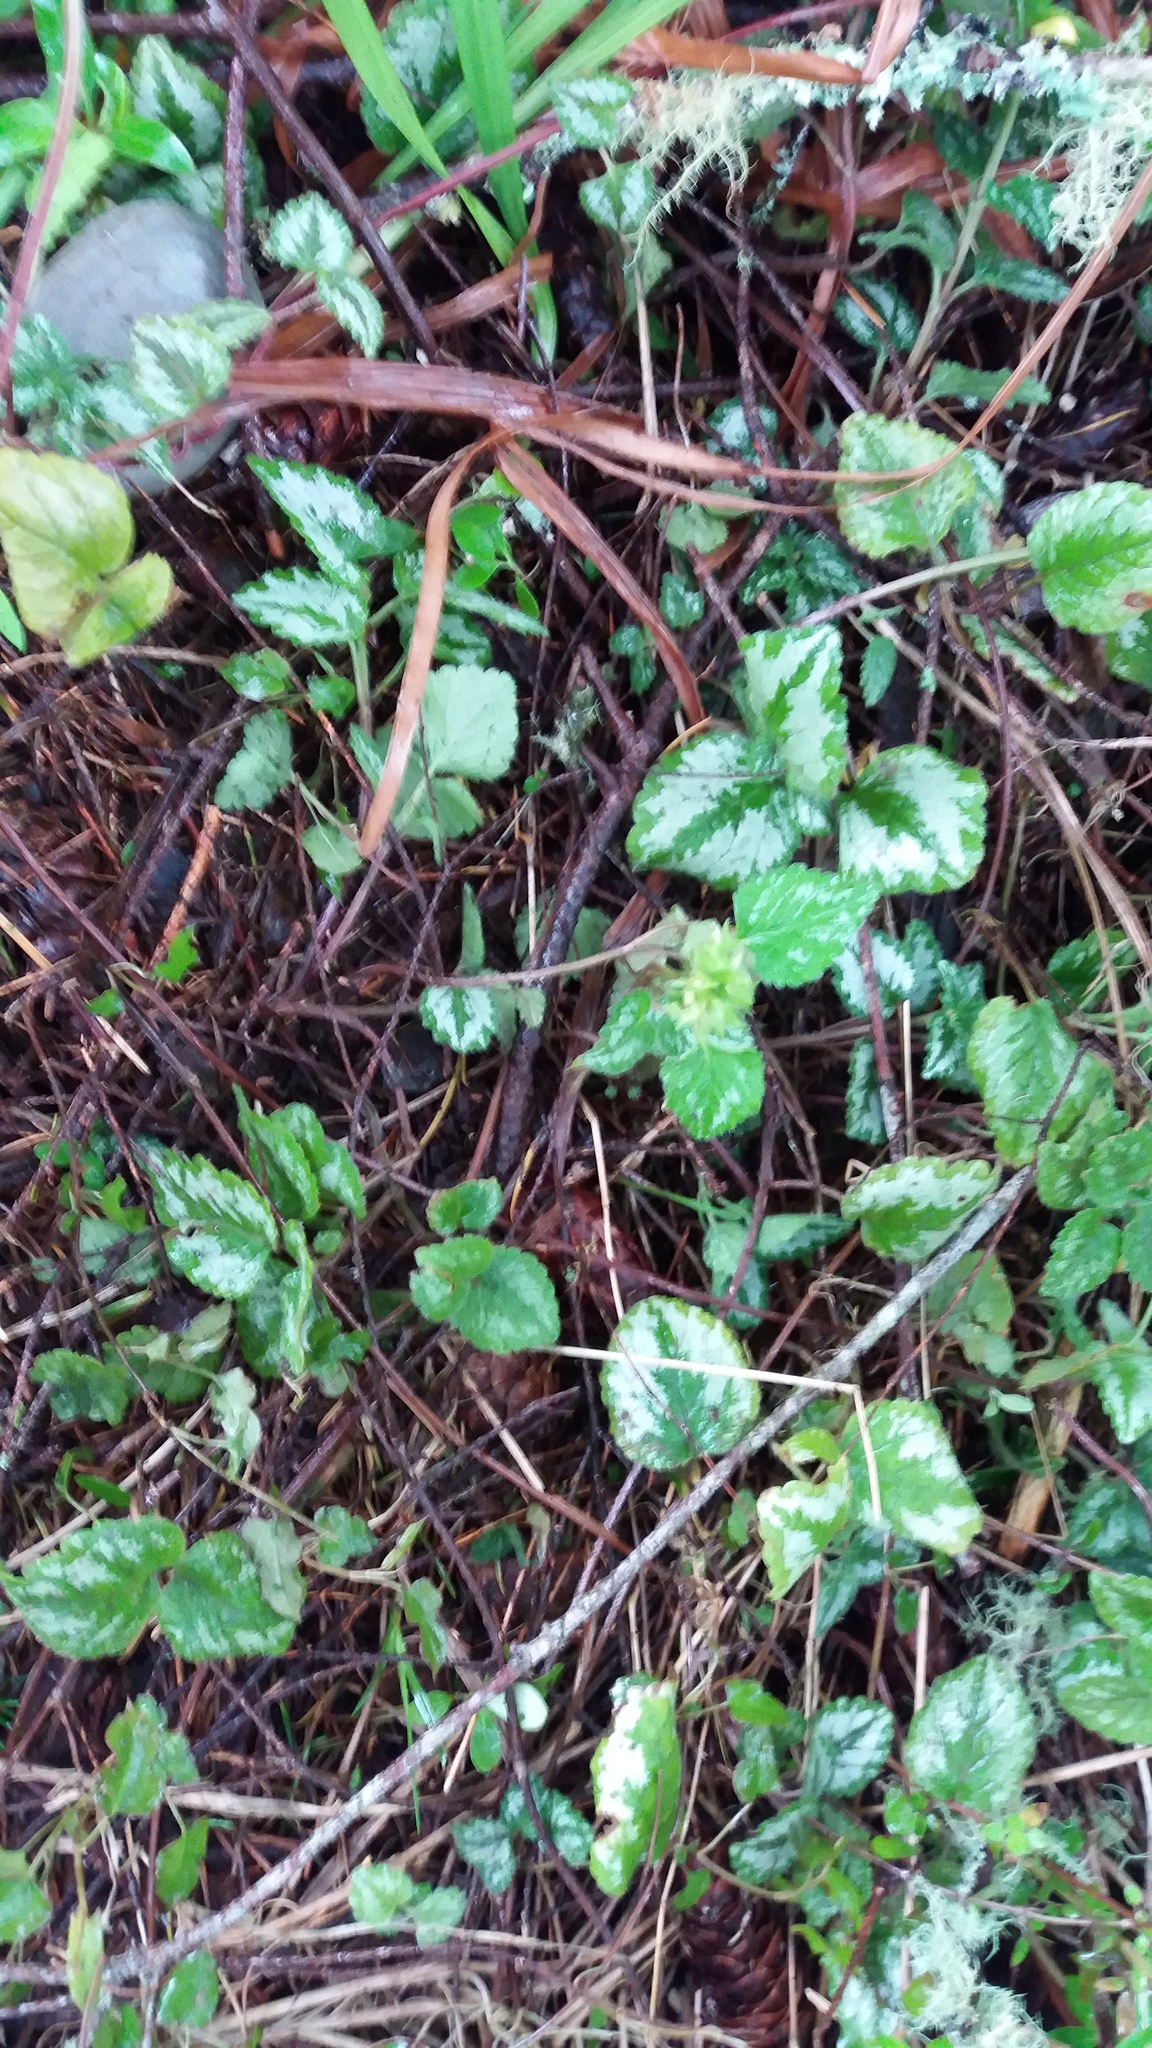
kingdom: Plantae
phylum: Tracheophyta
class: Magnoliopsida
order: Lamiales
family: Lamiaceae
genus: Lamium
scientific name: Lamium galeobdolon
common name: Yellow archangel
